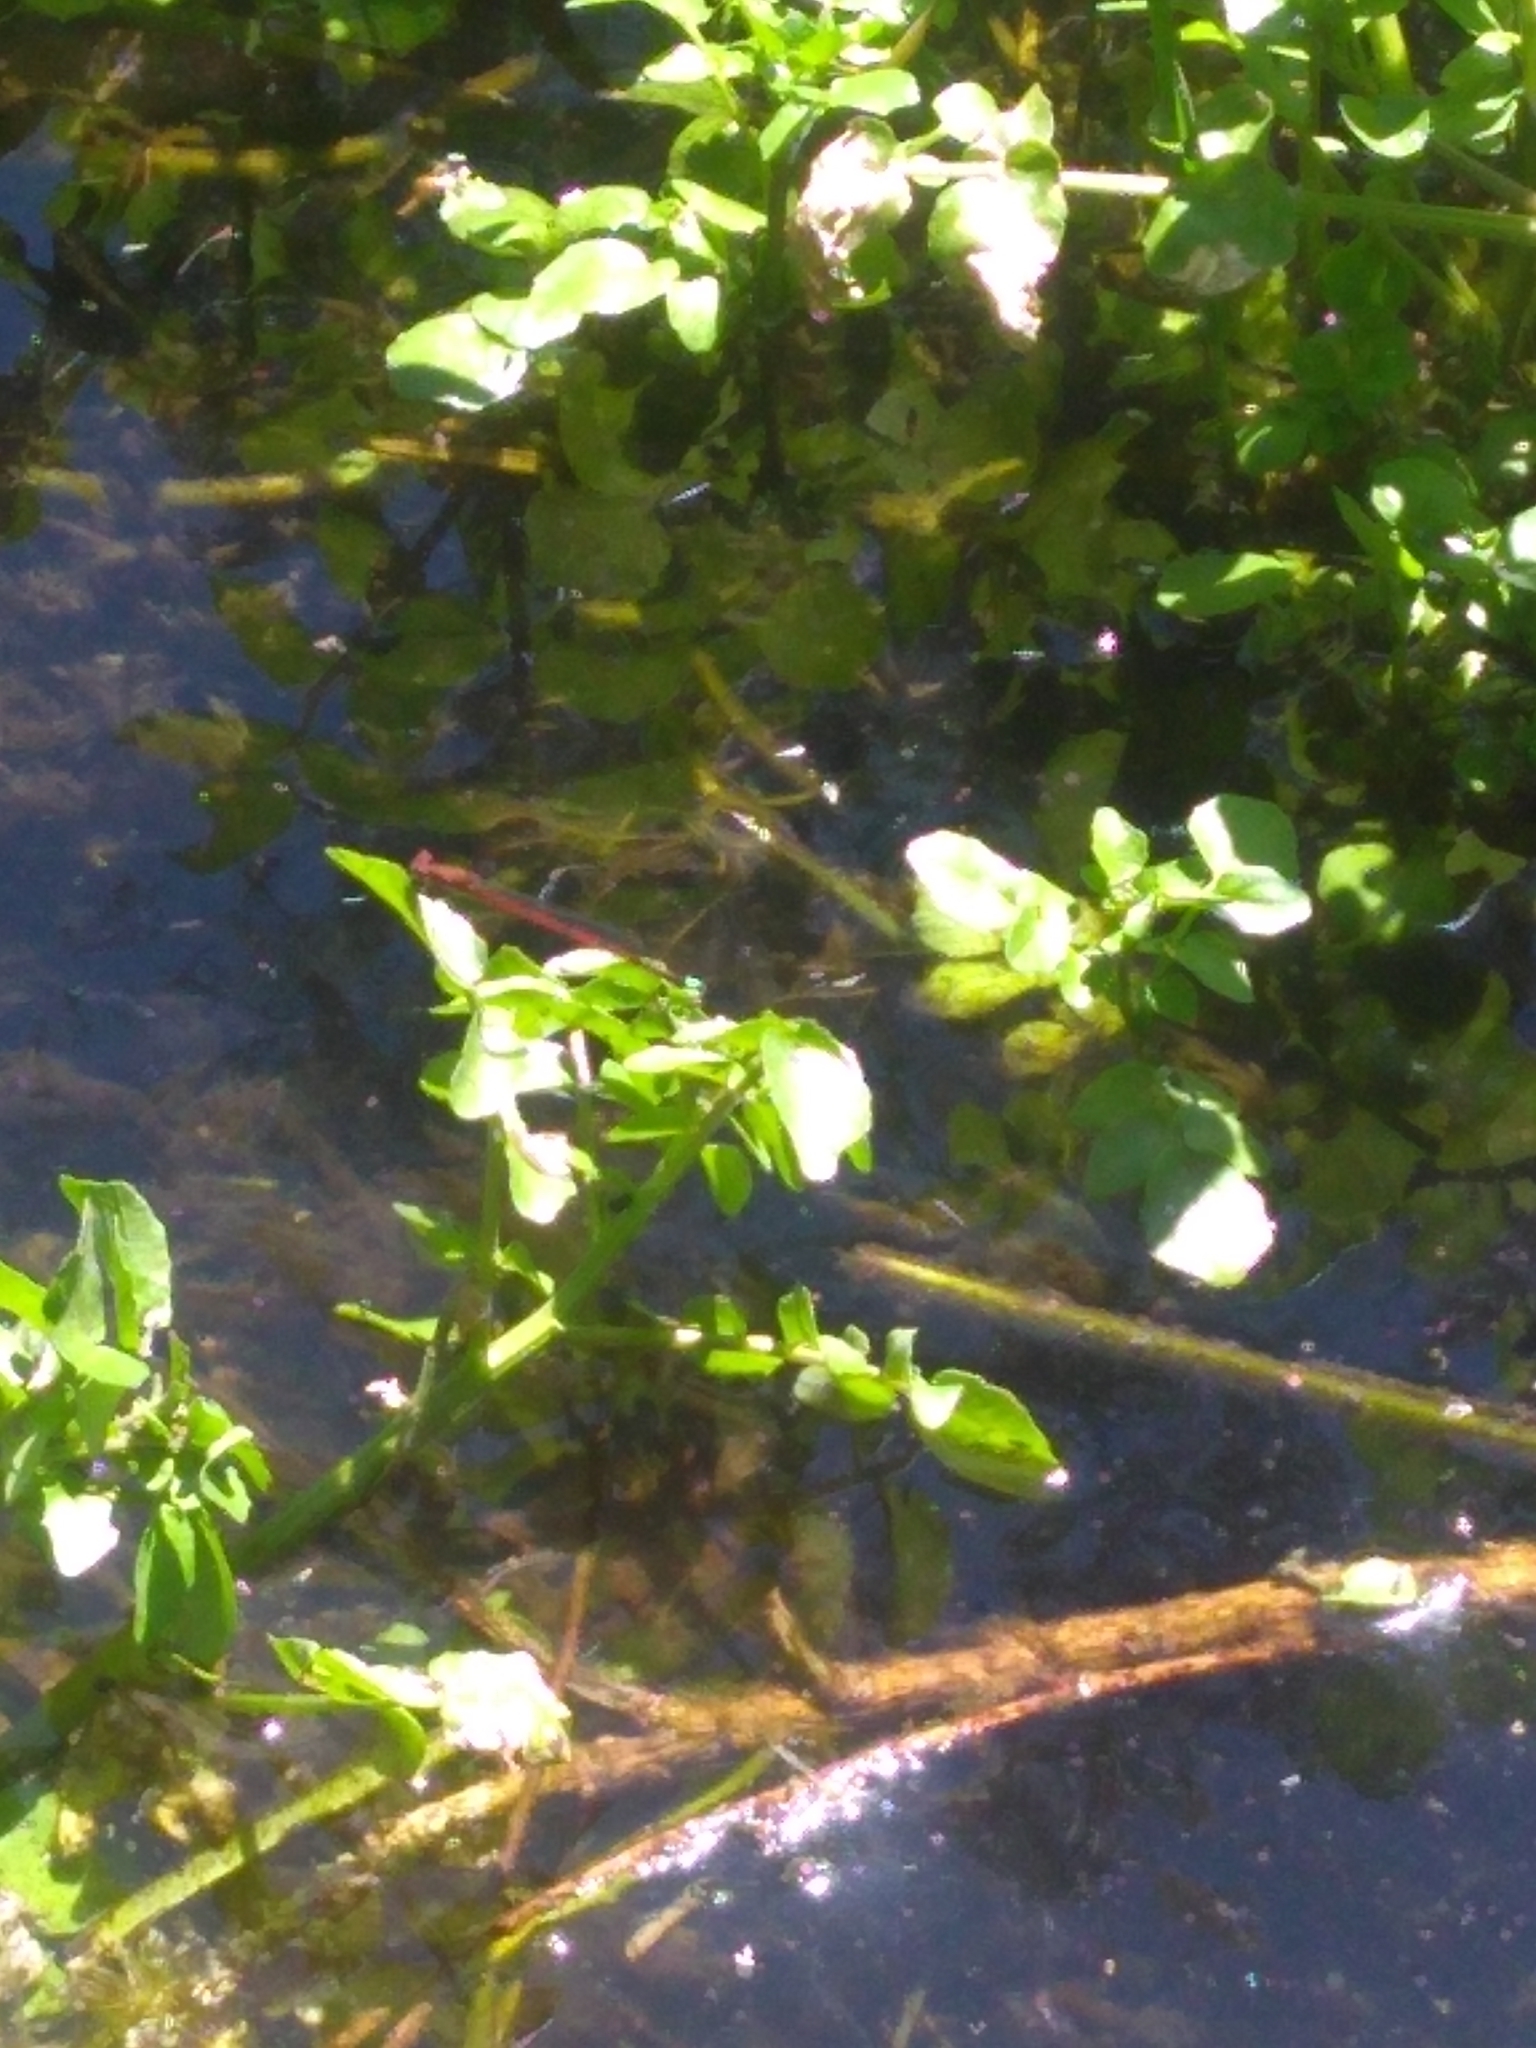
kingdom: Animalia
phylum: Arthropoda
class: Insecta
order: Odonata
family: Coenagrionidae
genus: Oxyagrion
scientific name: Oxyagrion terminale
